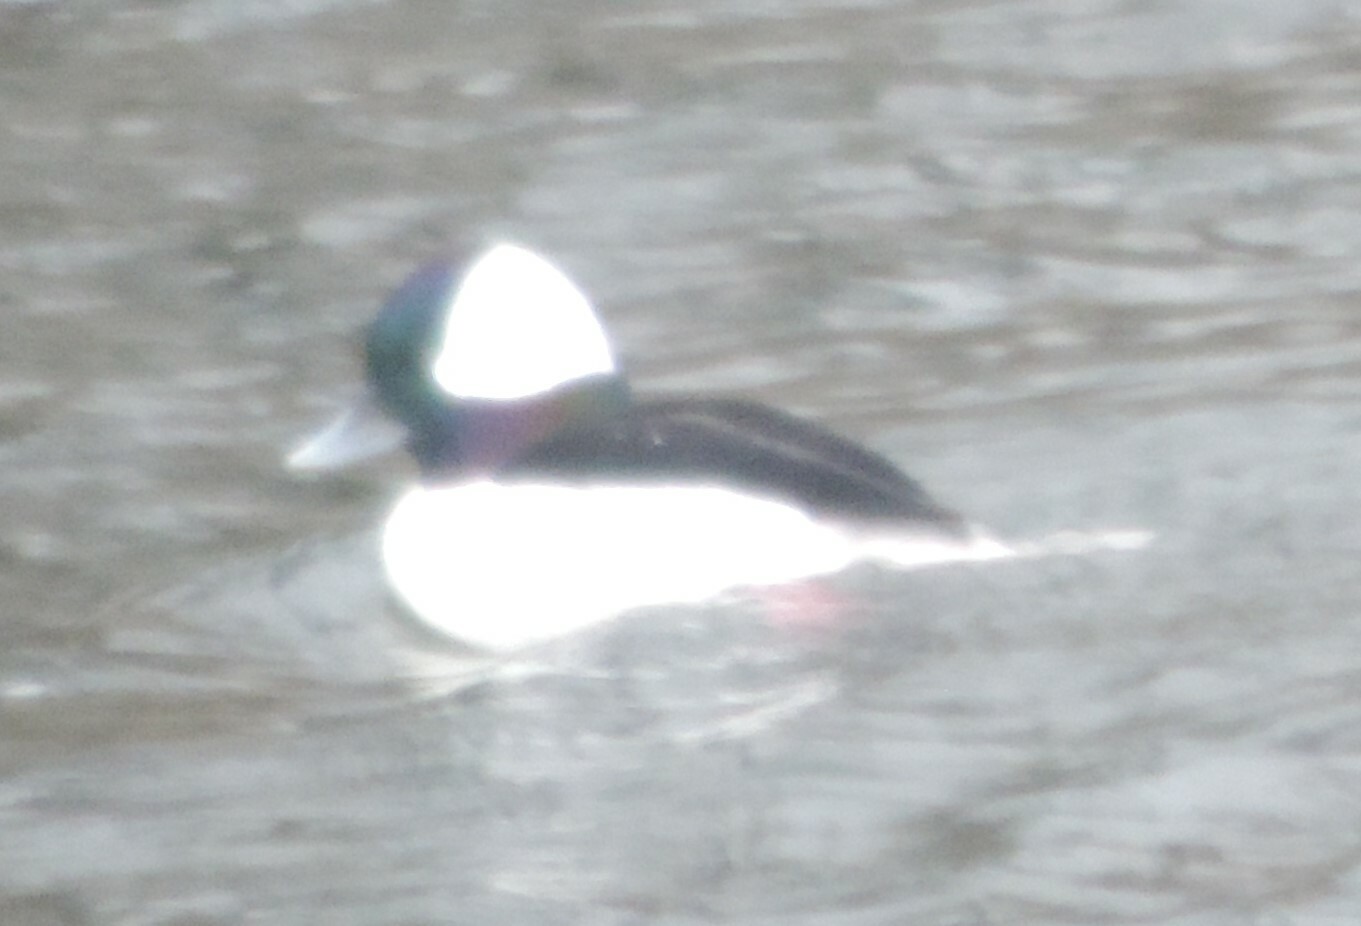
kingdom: Animalia
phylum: Chordata
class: Aves
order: Anseriformes
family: Anatidae
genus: Bucephala
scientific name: Bucephala albeola
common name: Bufflehead
